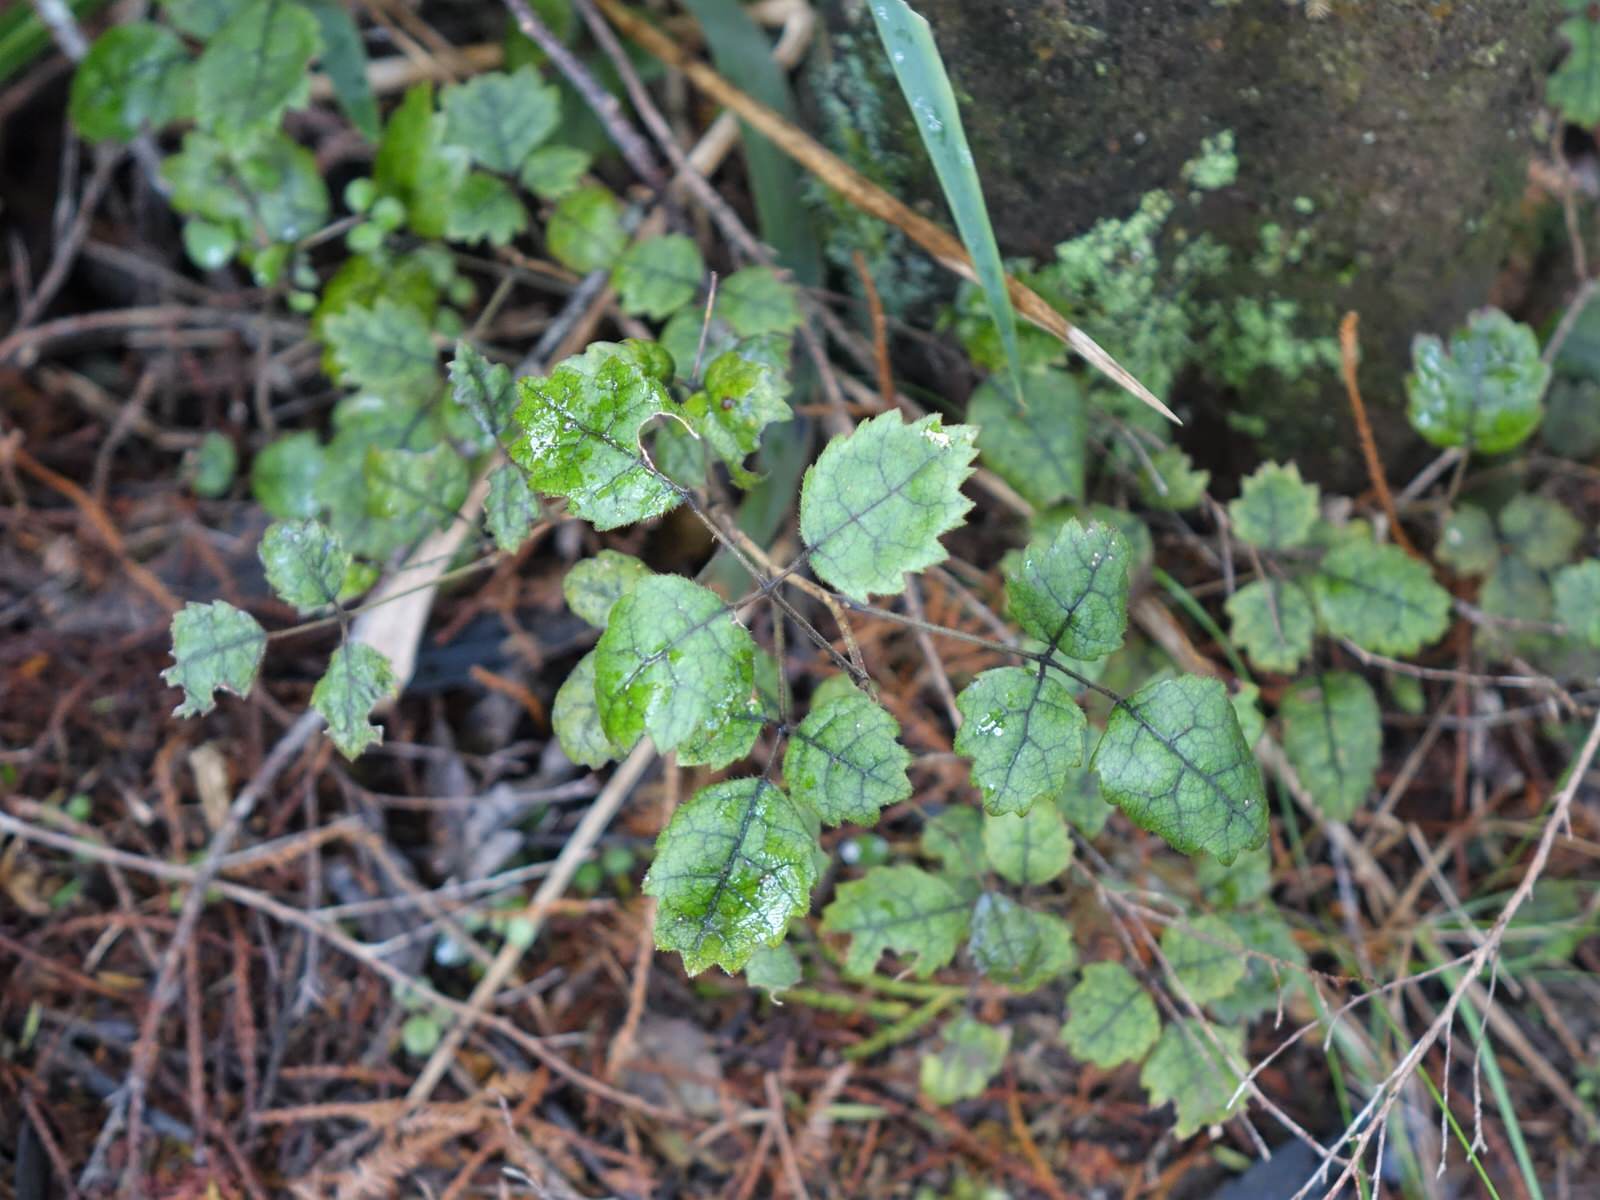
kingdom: Plantae
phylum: Tracheophyta
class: Magnoliopsida
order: Rosales
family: Rosaceae
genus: Rubus
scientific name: Rubus australis
